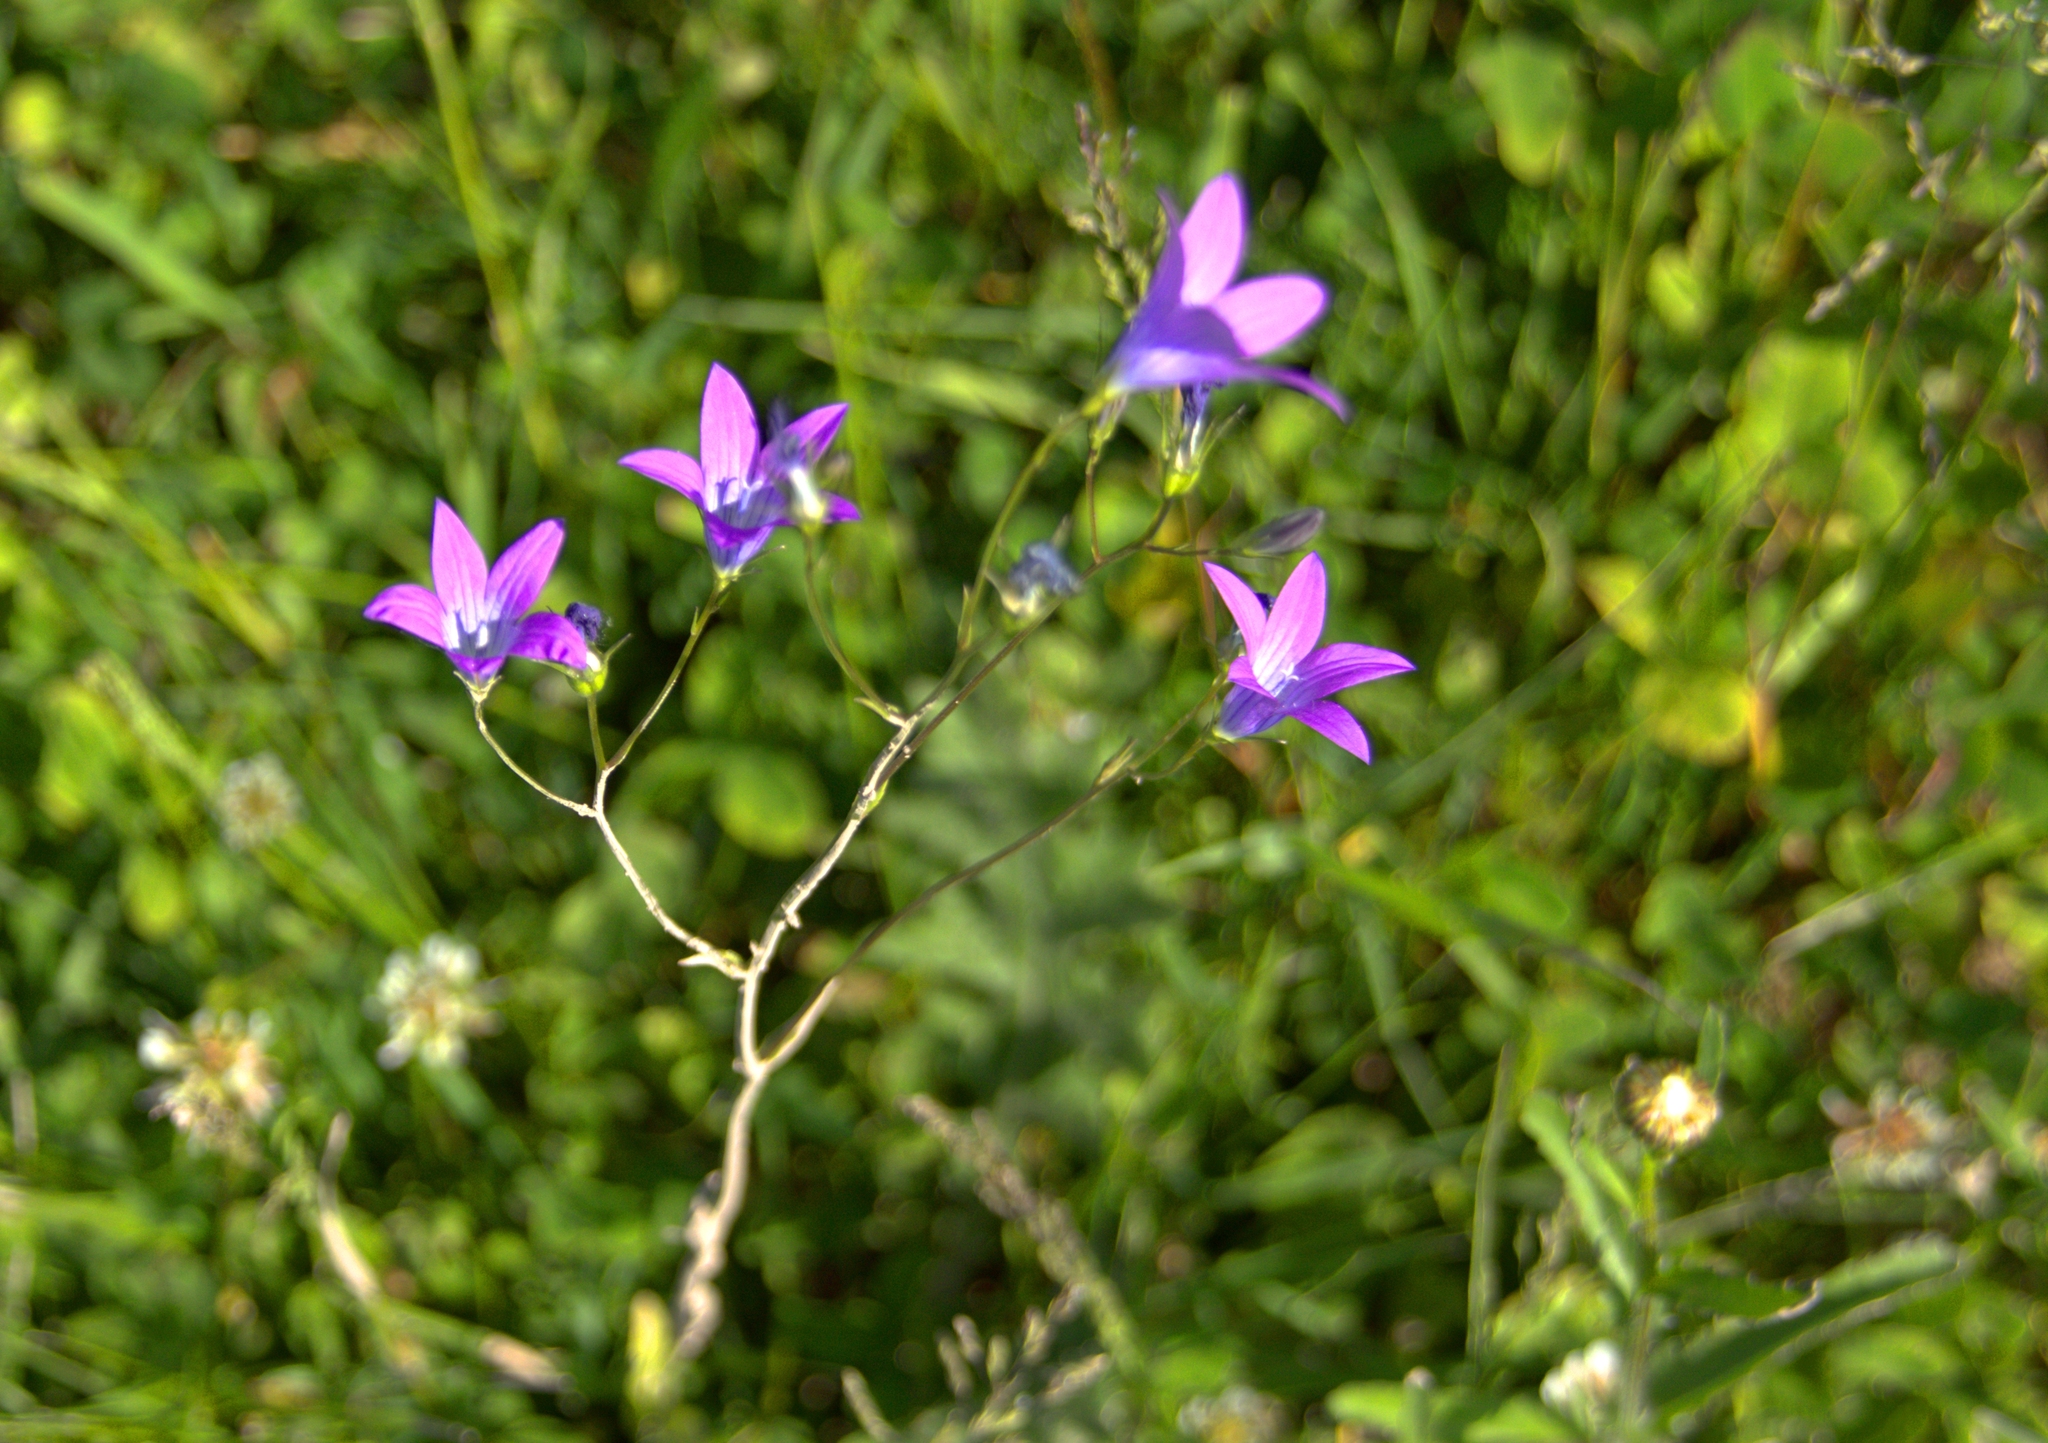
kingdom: Plantae
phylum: Tracheophyta
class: Magnoliopsida
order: Asterales
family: Campanulaceae
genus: Campanula
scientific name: Campanula patula
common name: Spreading bellflower
